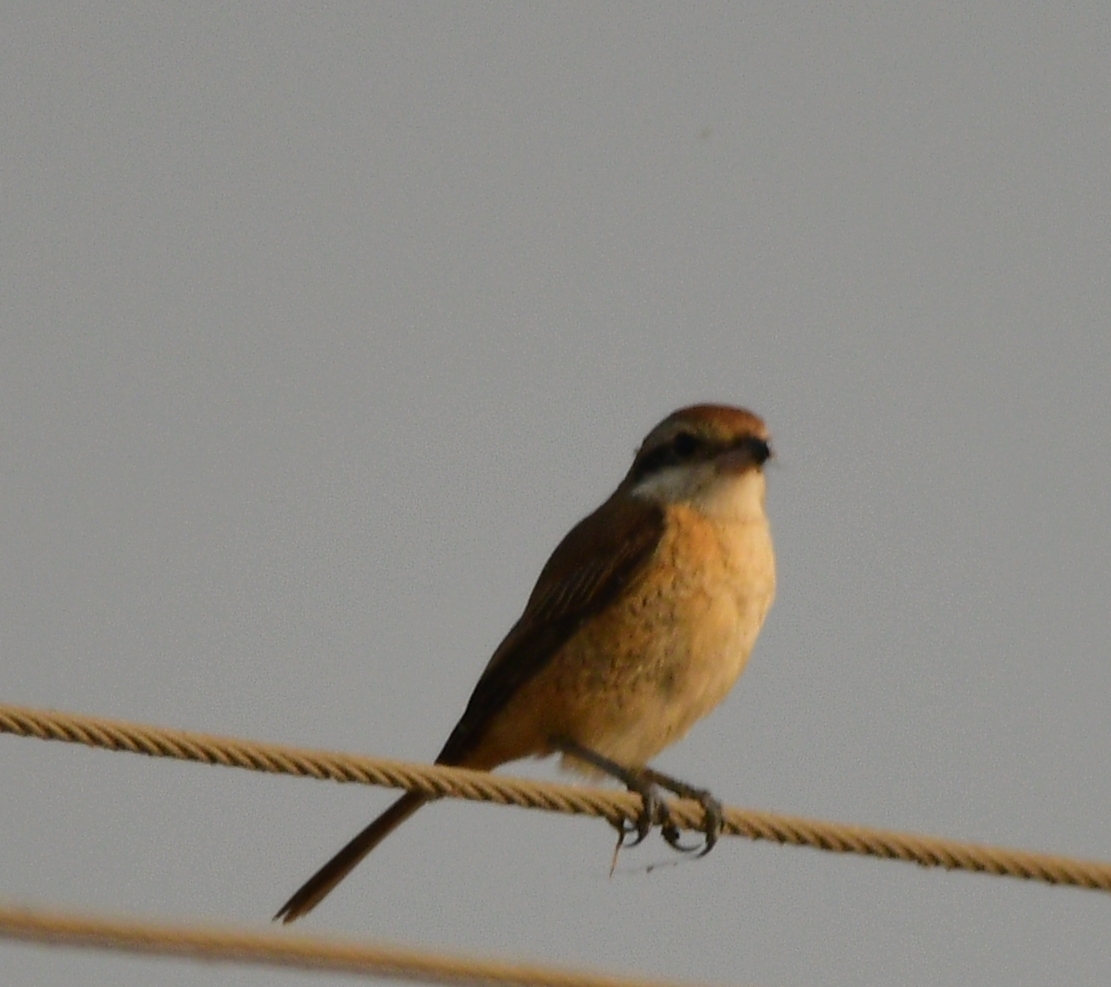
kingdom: Animalia
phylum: Chordata
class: Aves
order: Passeriformes
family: Laniidae
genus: Lanius
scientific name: Lanius cristatus
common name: Brown shrike
